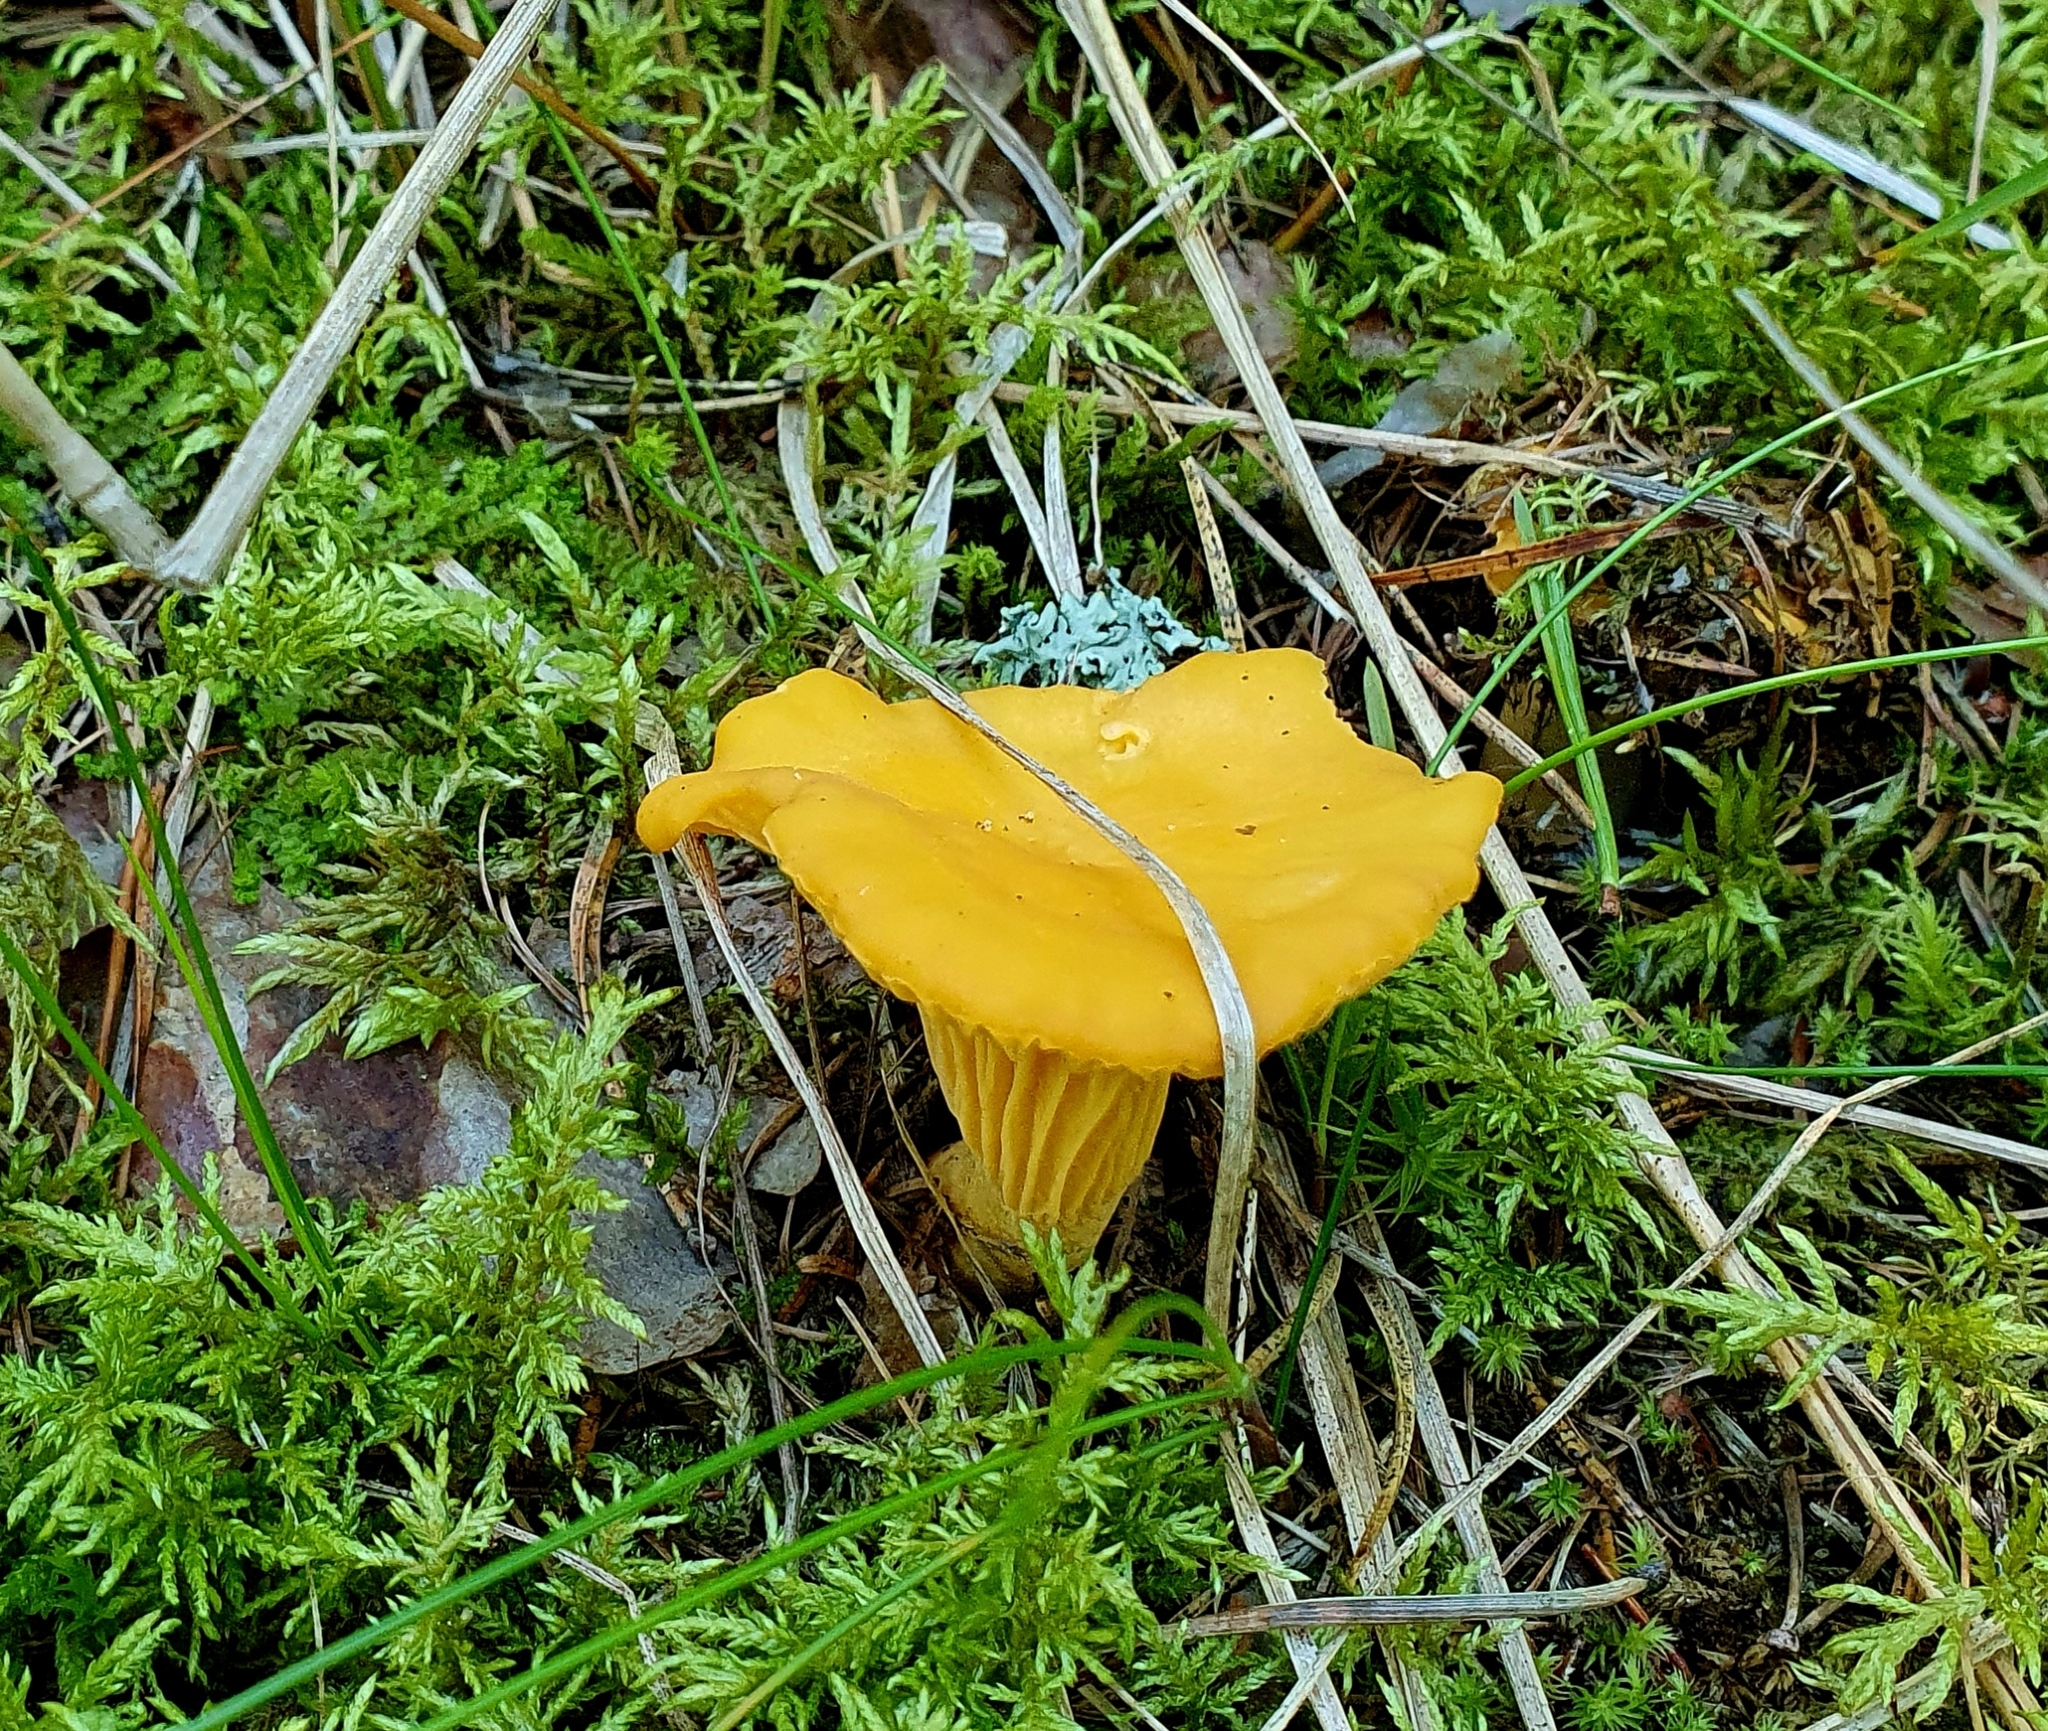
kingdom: Fungi
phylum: Basidiomycota
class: Agaricomycetes
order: Cantharellales
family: Hydnaceae
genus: Cantharellus
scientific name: Cantharellus cibarius
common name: Chanterelle
